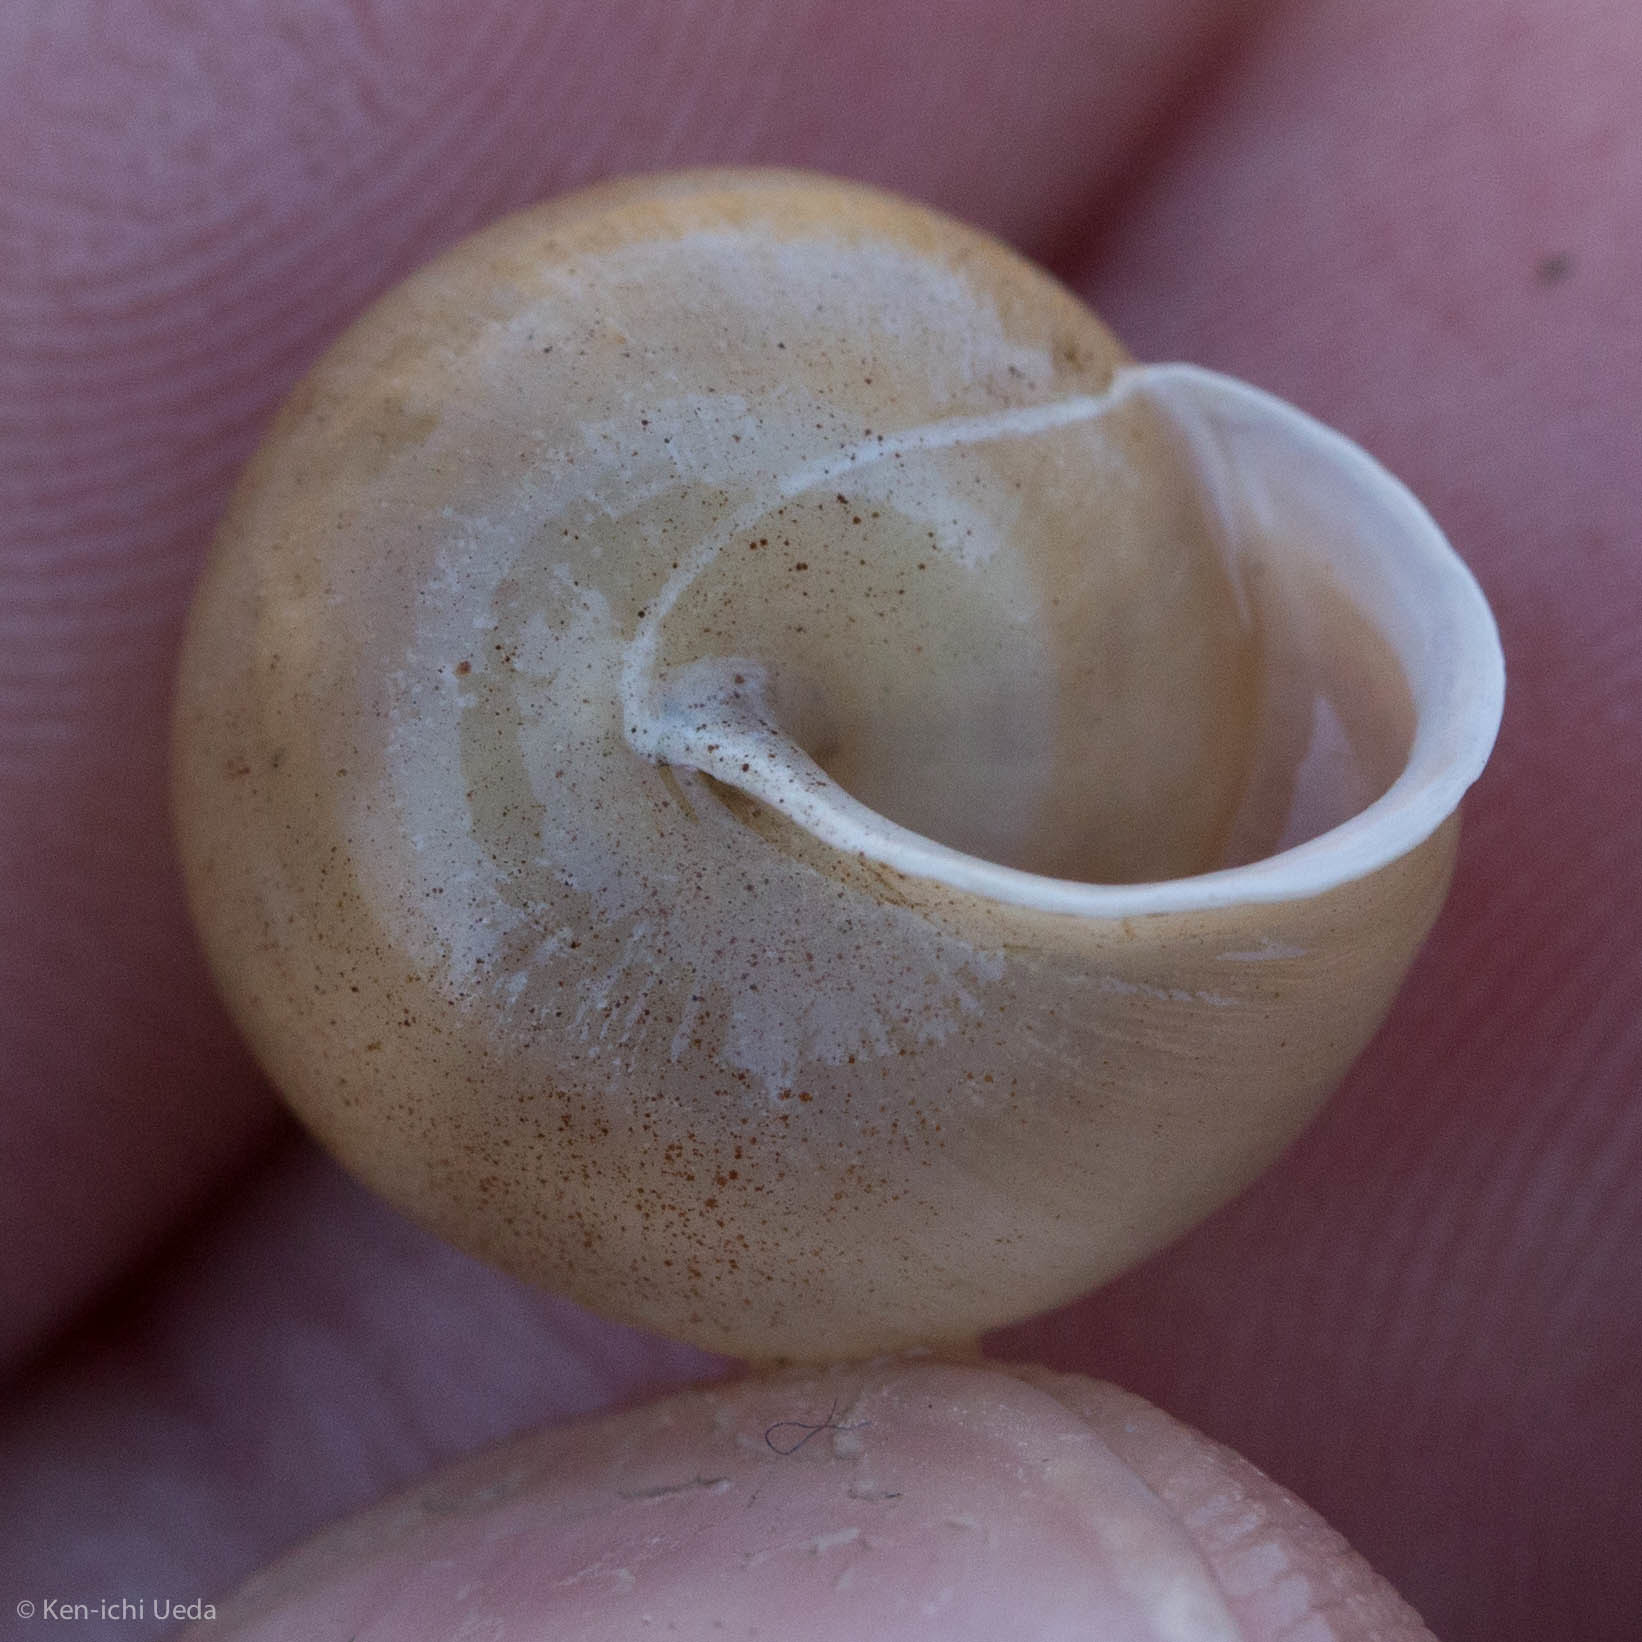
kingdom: Animalia
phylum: Mollusca
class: Gastropoda
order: Stylommatophora
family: Polygyridae
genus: Mesodon
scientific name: Mesodon clausus
